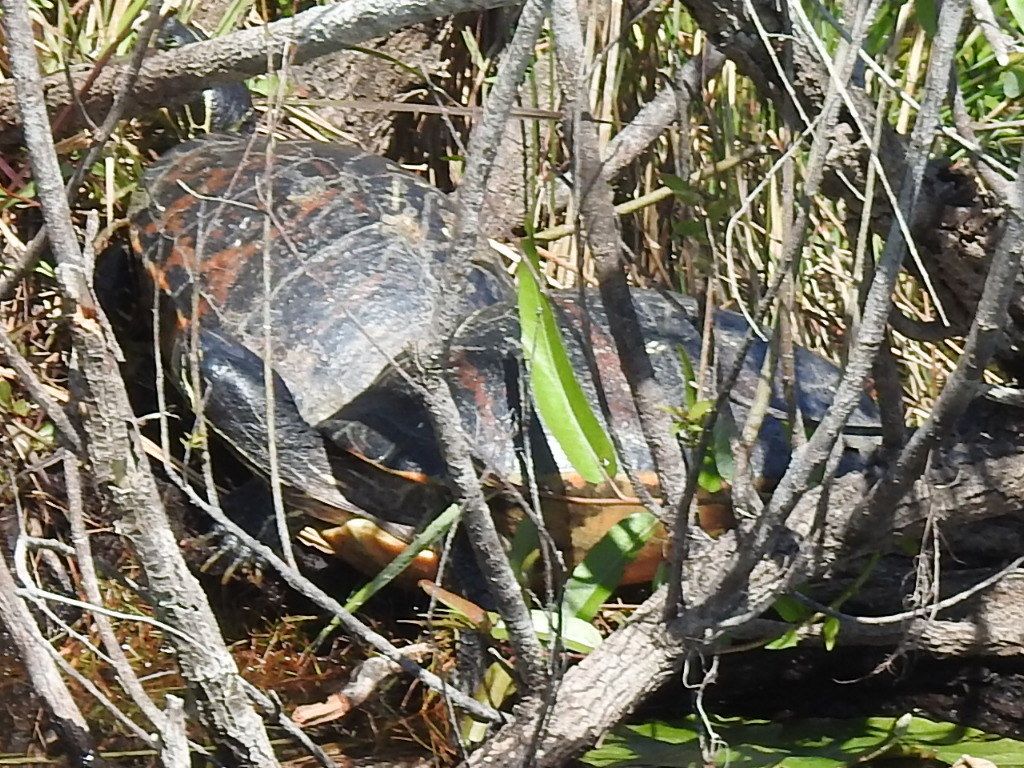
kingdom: Animalia
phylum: Chordata
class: Testudines
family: Emydidae
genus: Pseudemys
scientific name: Pseudemys nelsoni
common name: Florida red-bellied turtle
